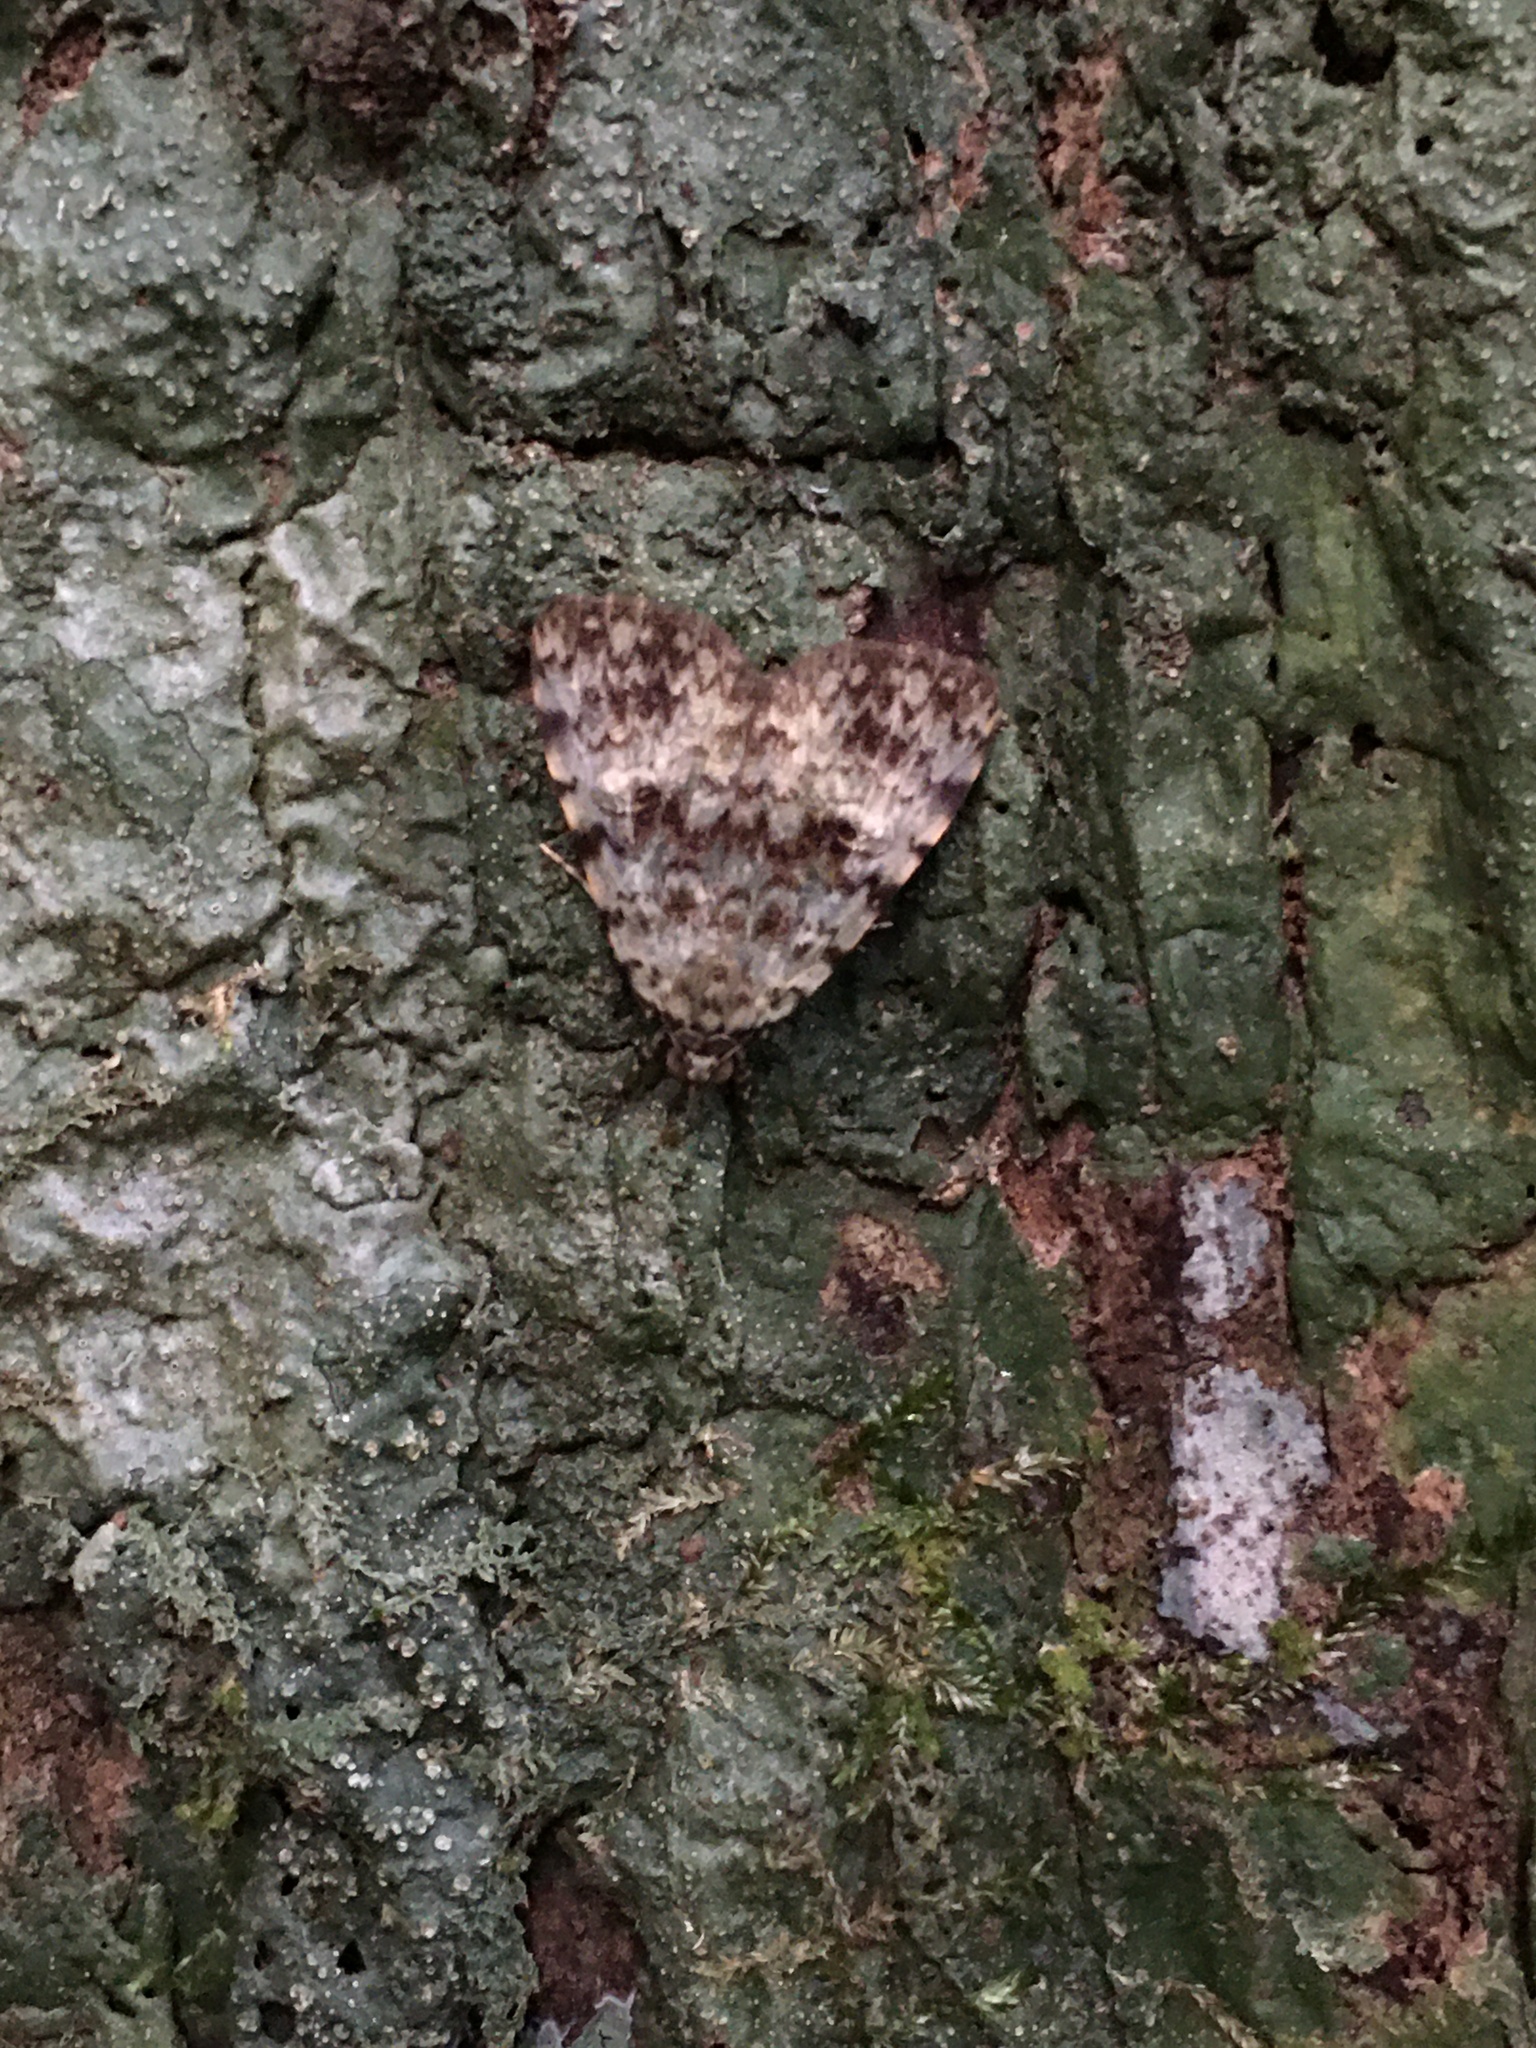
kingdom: Animalia
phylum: Arthropoda
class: Insecta
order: Lepidoptera
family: Erebidae
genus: Glenopteris
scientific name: Glenopteris herbidalis
